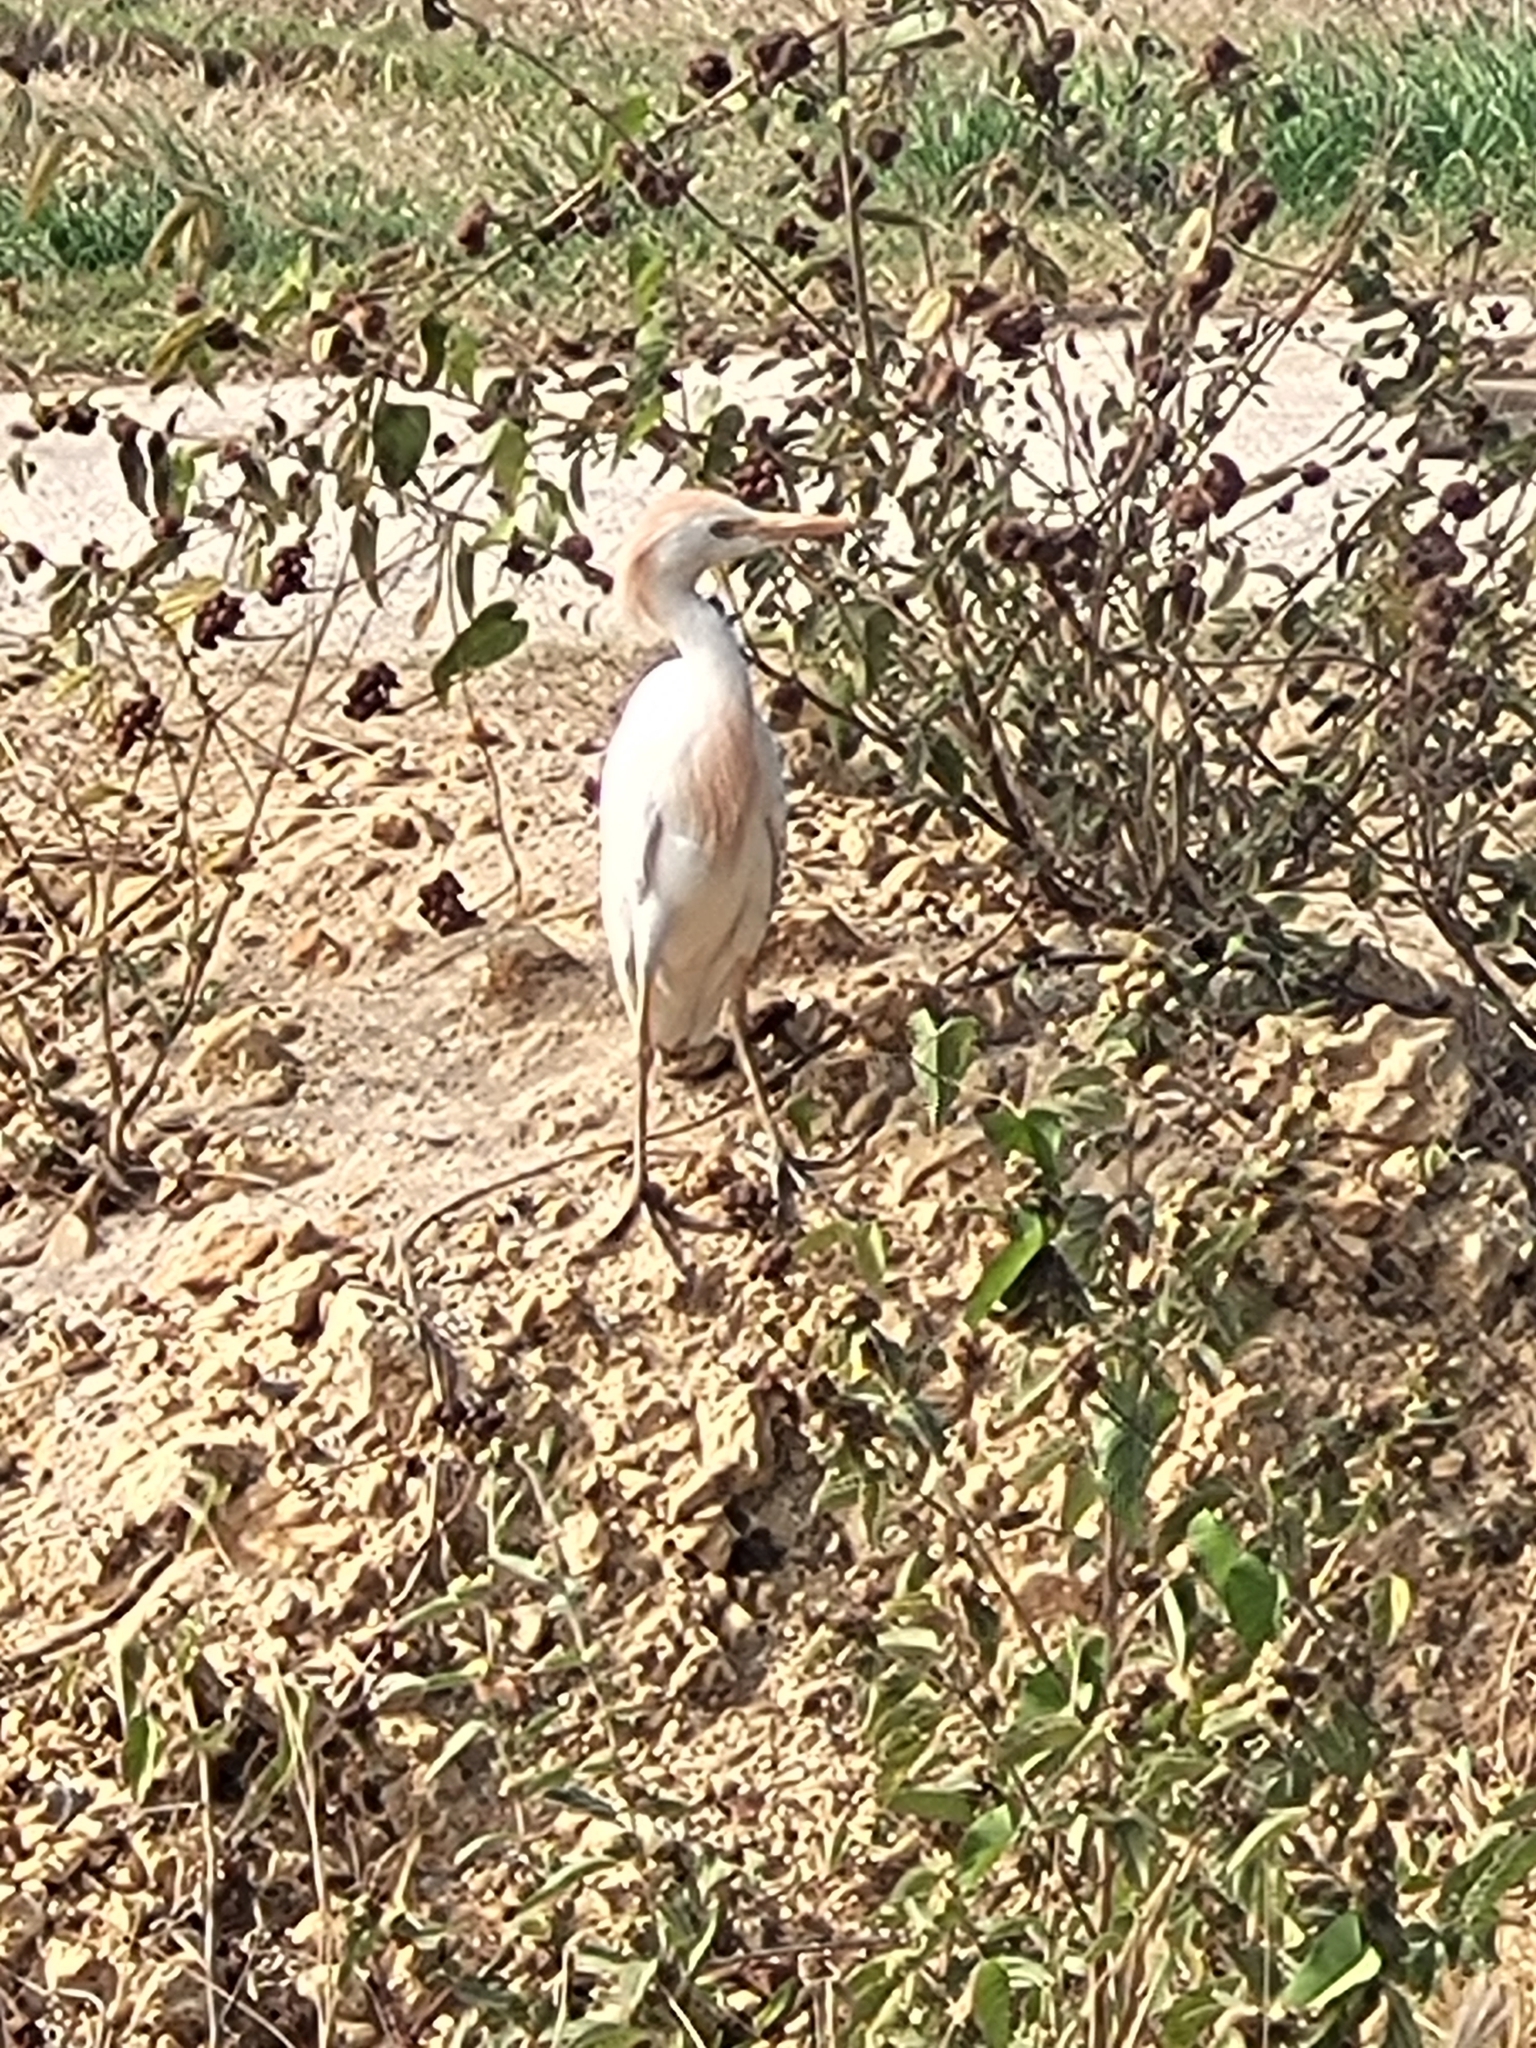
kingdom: Animalia
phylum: Chordata
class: Aves
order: Pelecaniformes
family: Ardeidae
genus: Bubulcus
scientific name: Bubulcus ibis
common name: Cattle egret
